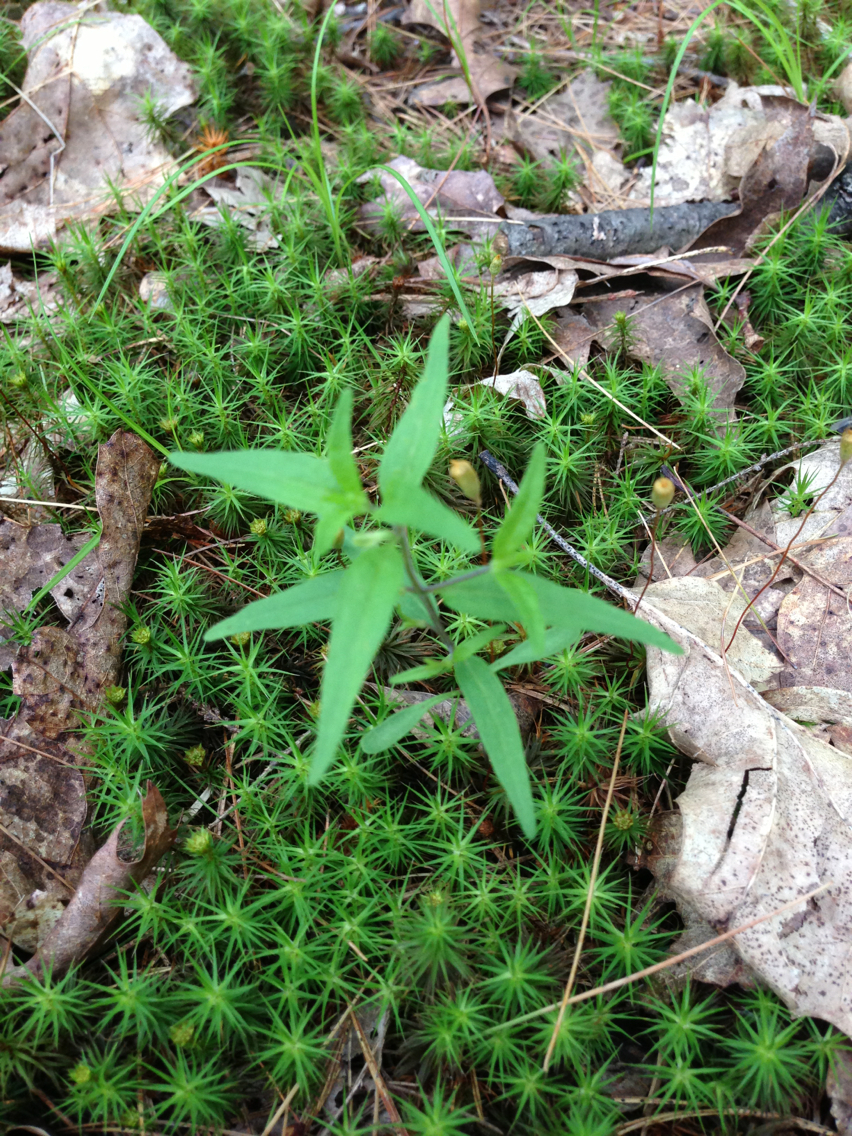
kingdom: Plantae
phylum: Tracheophyta
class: Magnoliopsida
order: Lamiales
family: Orobanchaceae
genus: Melampyrum
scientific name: Melampyrum lineare
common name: American cow-wheat
